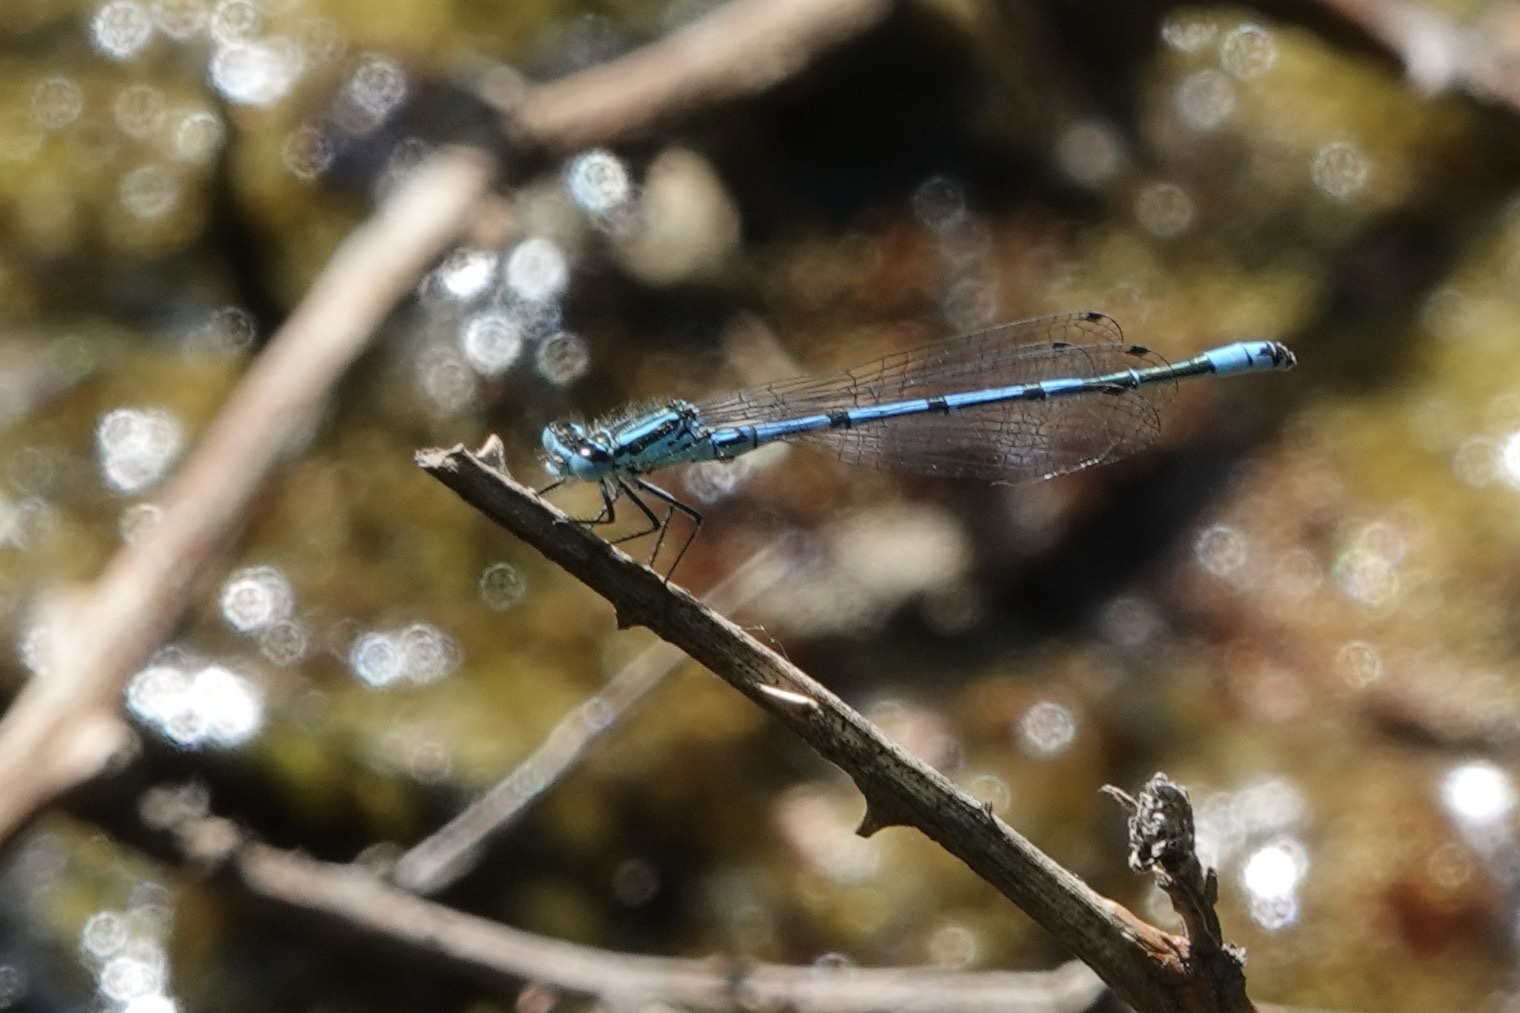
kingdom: Animalia
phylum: Arthropoda
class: Insecta
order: Odonata
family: Coenagrionidae
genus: Coenagrion
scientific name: Coenagrion puella
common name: Azure damselfly
